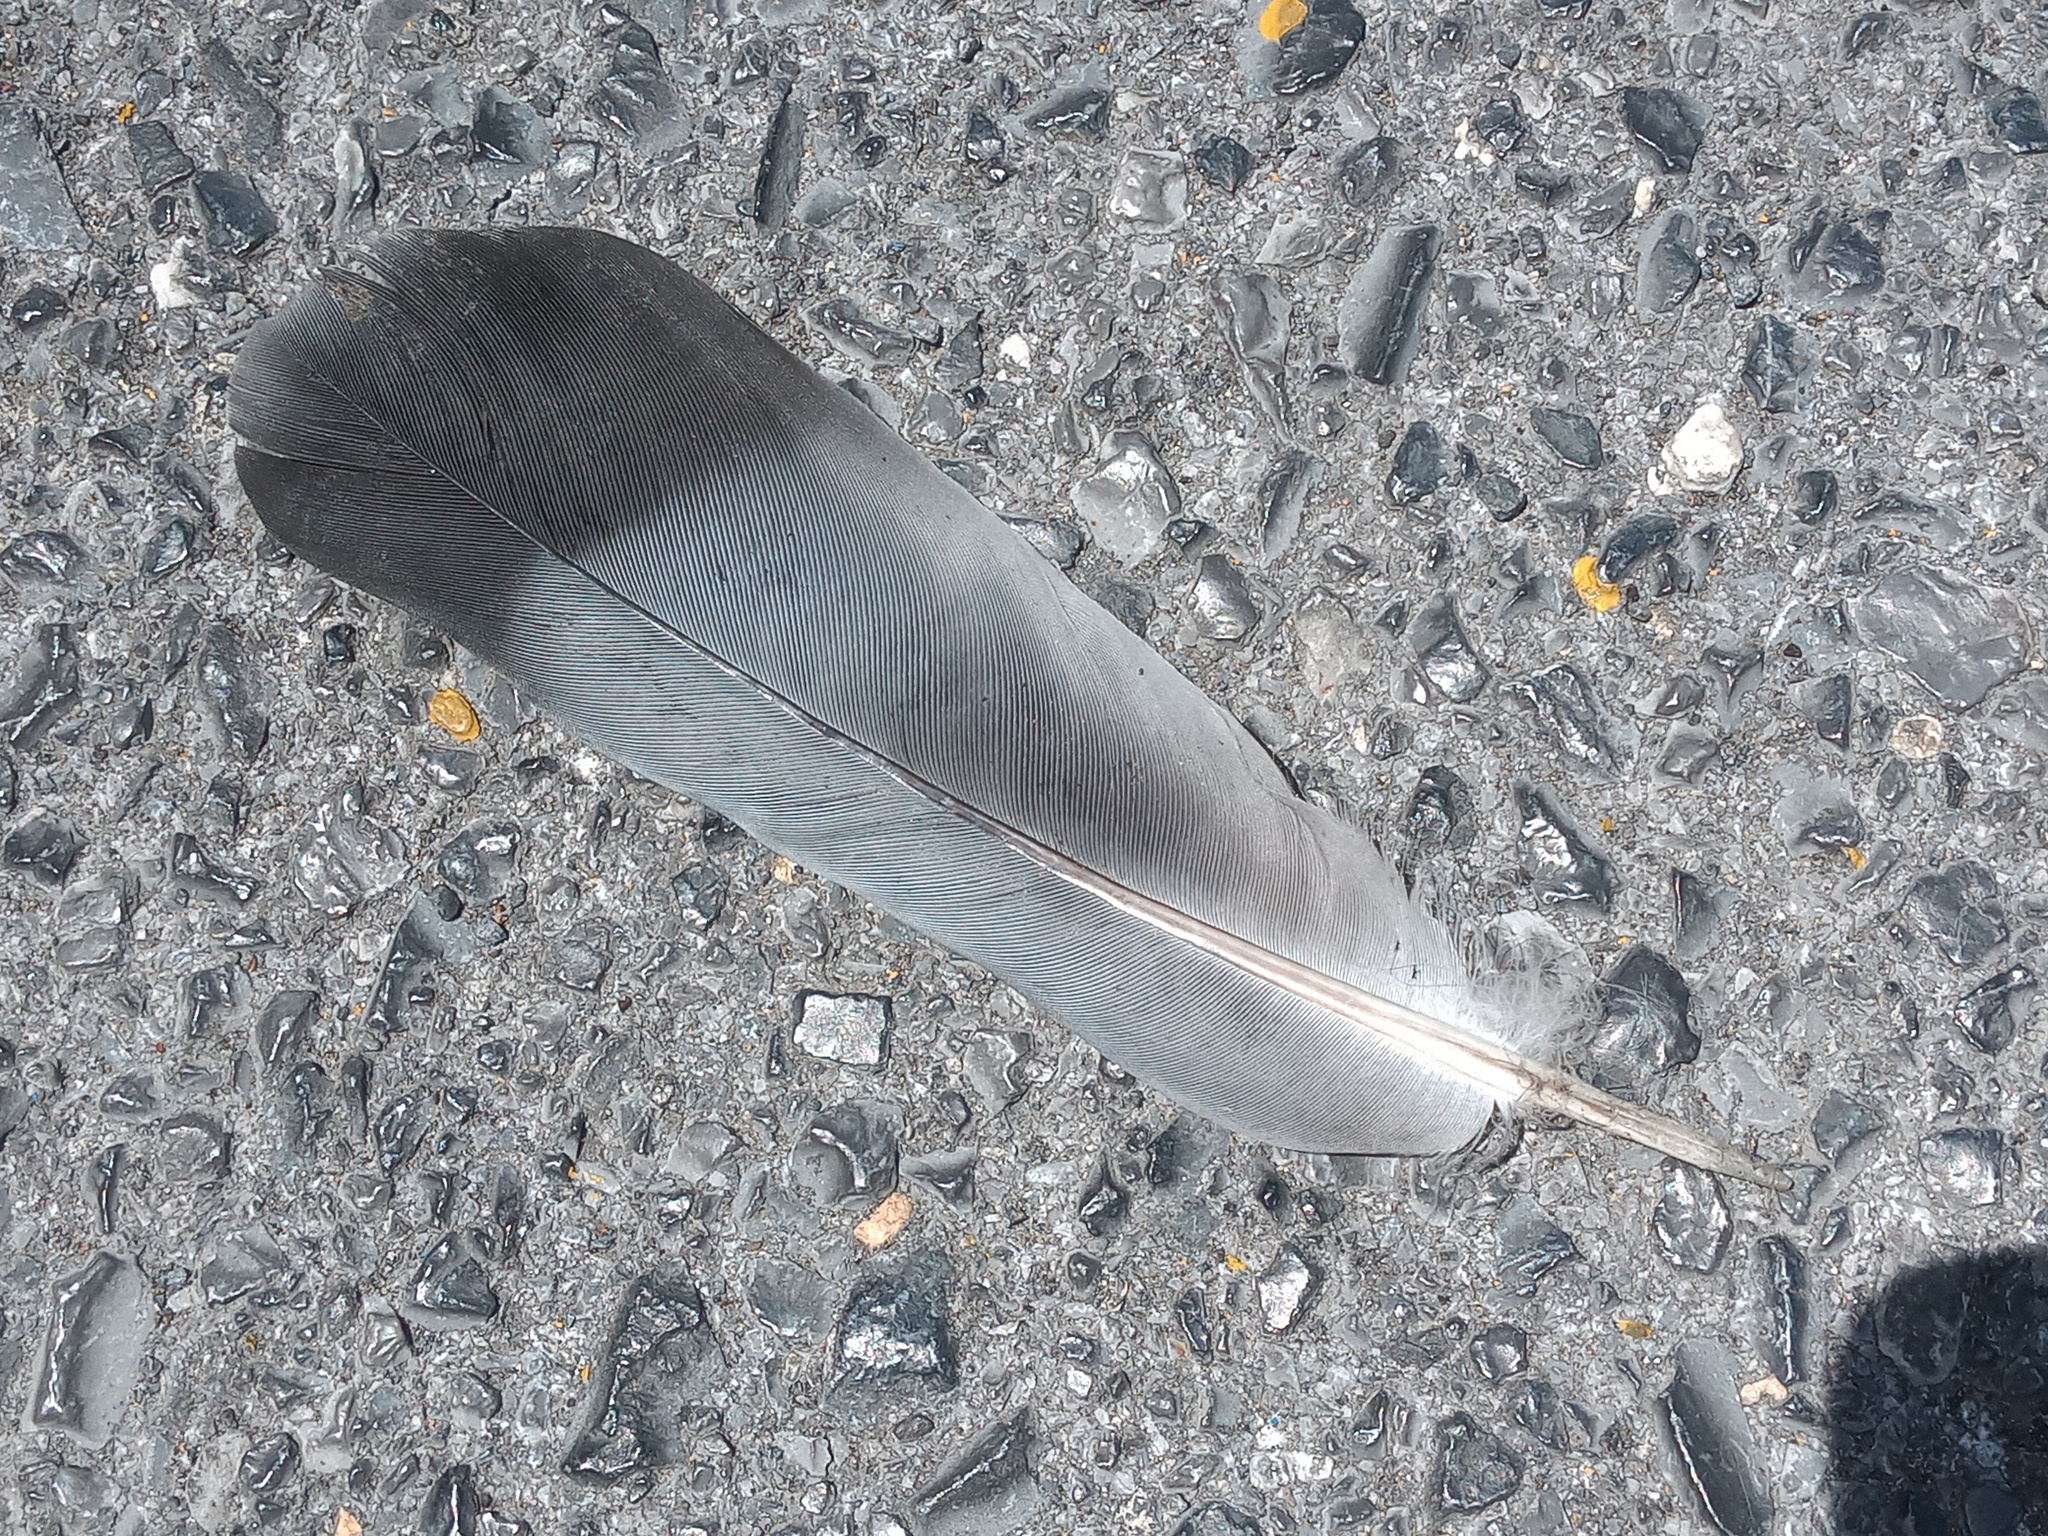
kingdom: Animalia
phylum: Chordata
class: Aves
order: Columbiformes
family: Columbidae
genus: Columba
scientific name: Columba livia
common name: Rock pigeon
